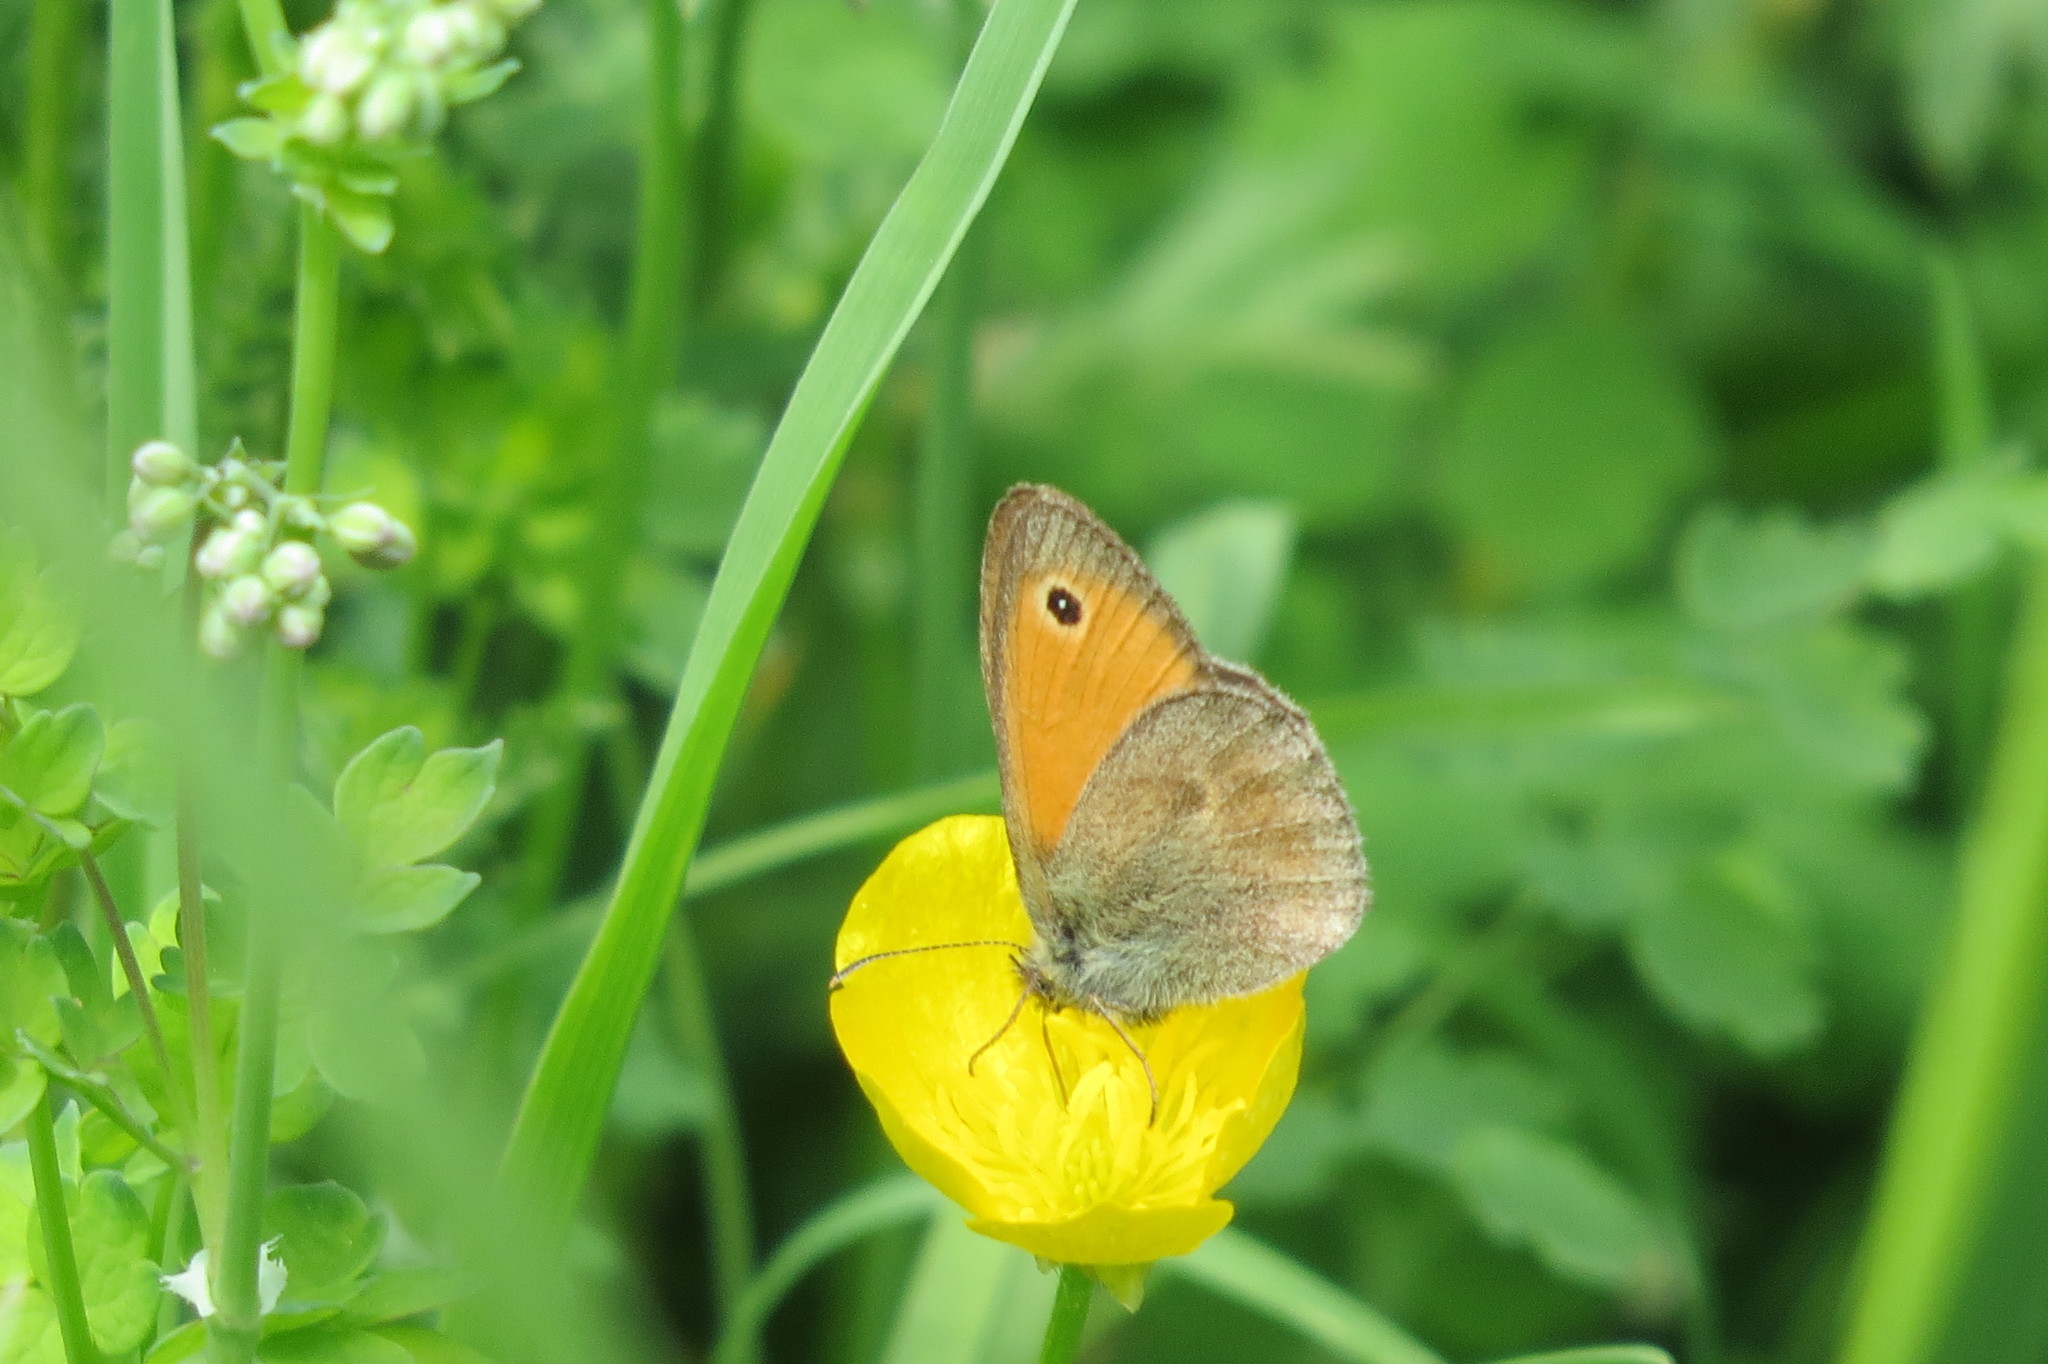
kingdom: Animalia
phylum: Arthropoda
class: Insecta
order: Lepidoptera
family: Nymphalidae
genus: Coenonympha
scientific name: Coenonympha pamphilus
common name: Small heath
